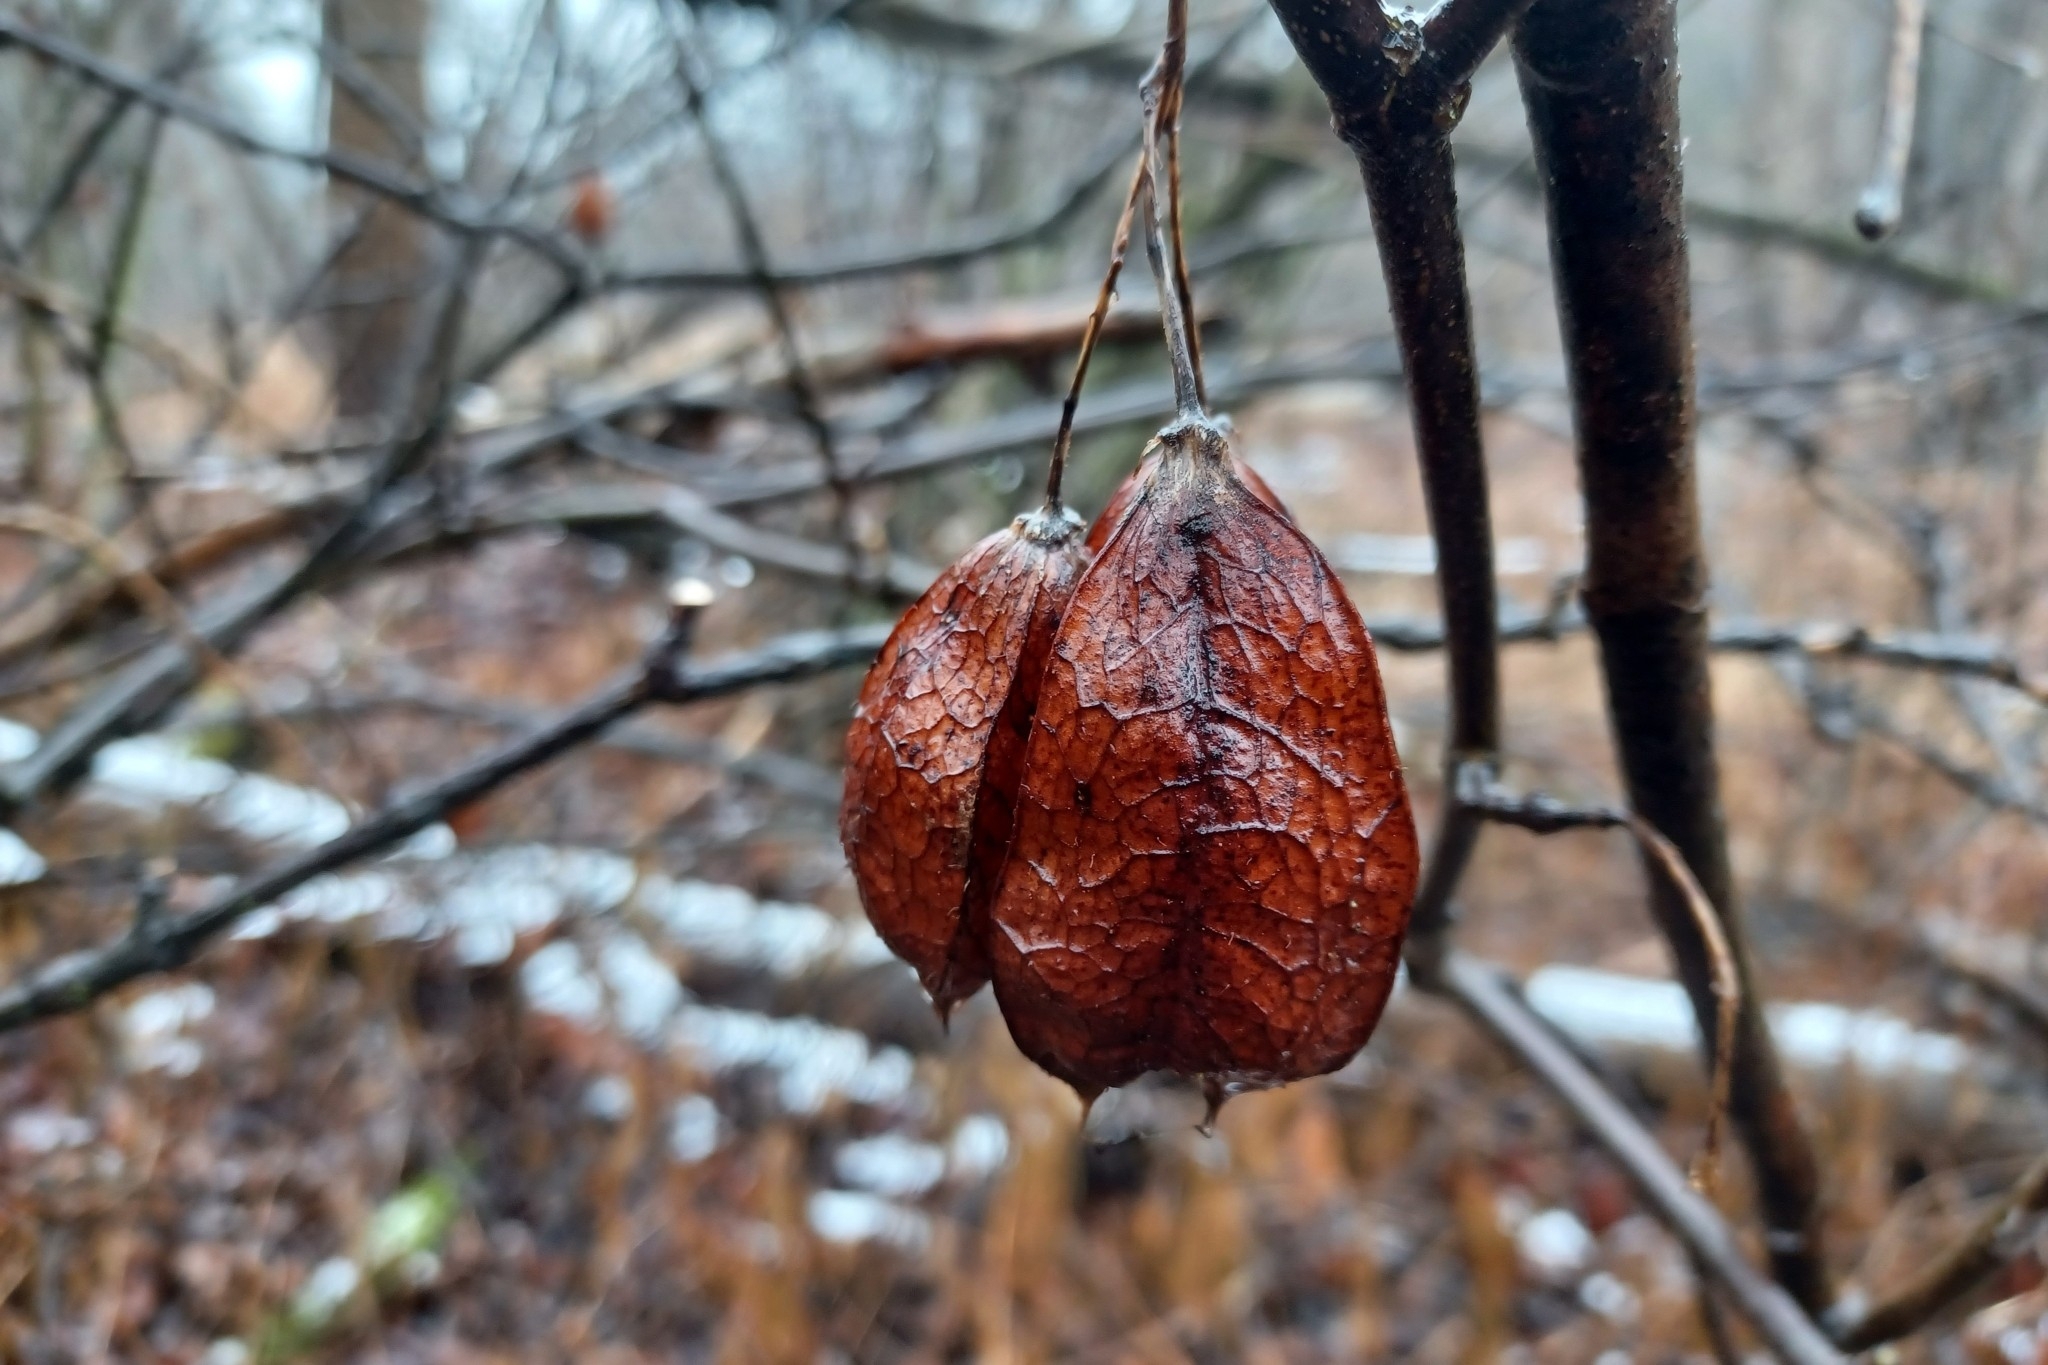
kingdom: Plantae
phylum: Tracheophyta
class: Magnoliopsida
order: Crossosomatales
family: Staphyleaceae
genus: Staphylea
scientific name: Staphylea trifolia
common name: American bladdernut
